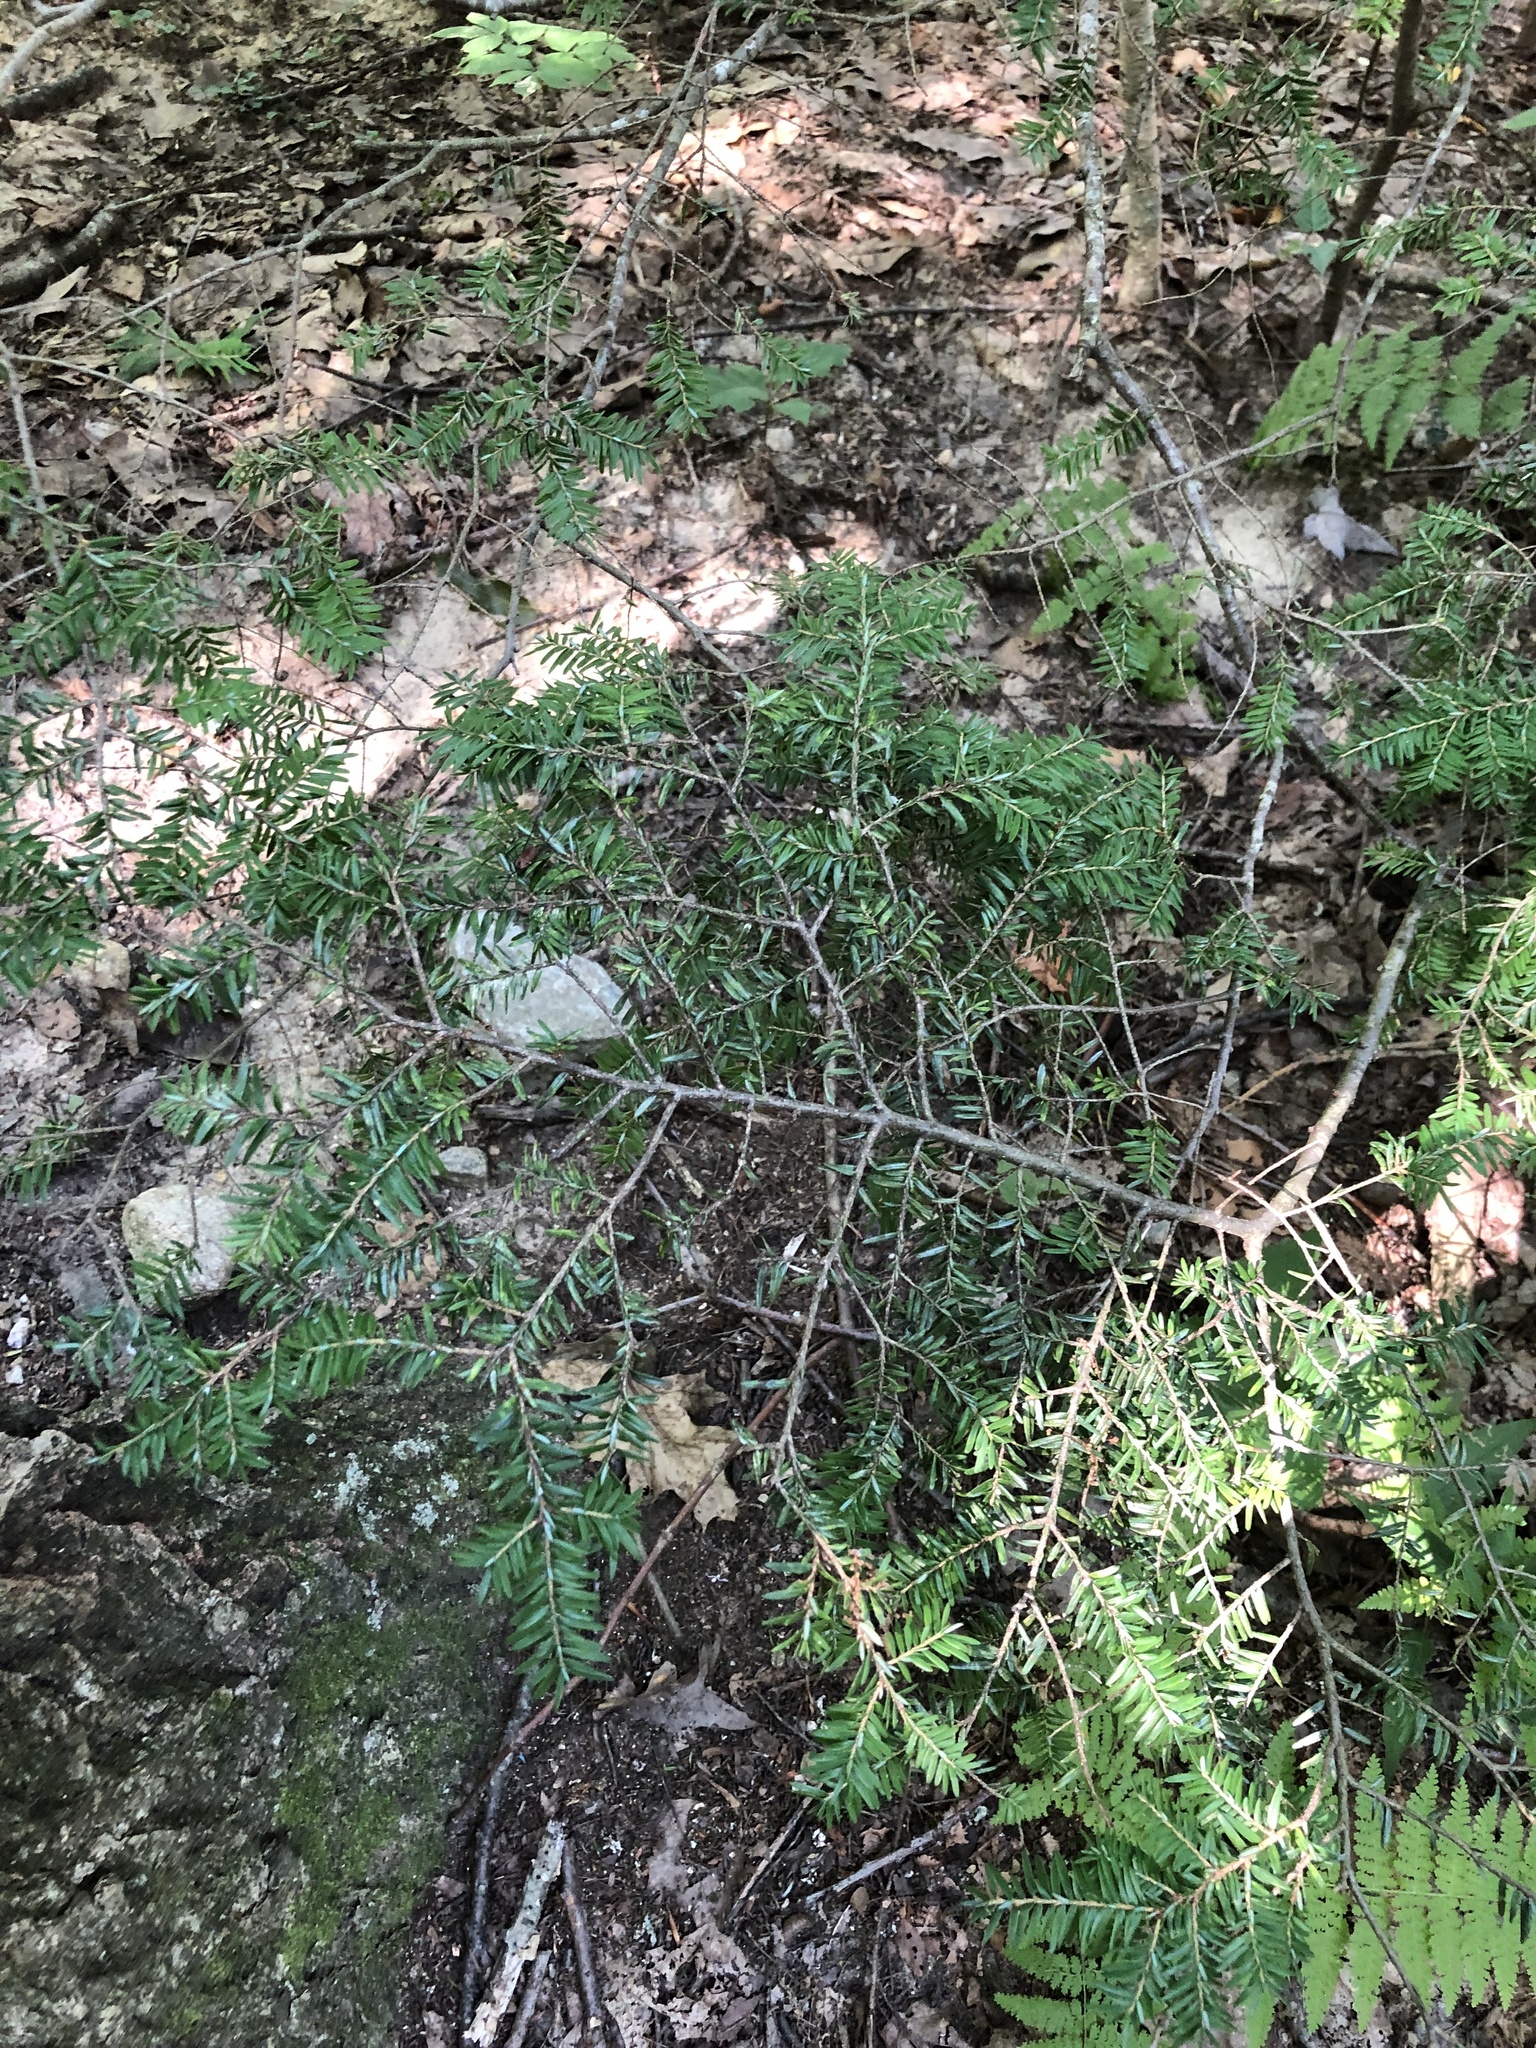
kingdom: Plantae
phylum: Tracheophyta
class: Pinopsida
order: Pinales
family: Pinaceae
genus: Tsuga
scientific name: Tsuga canadensis
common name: Eastern hemlock
